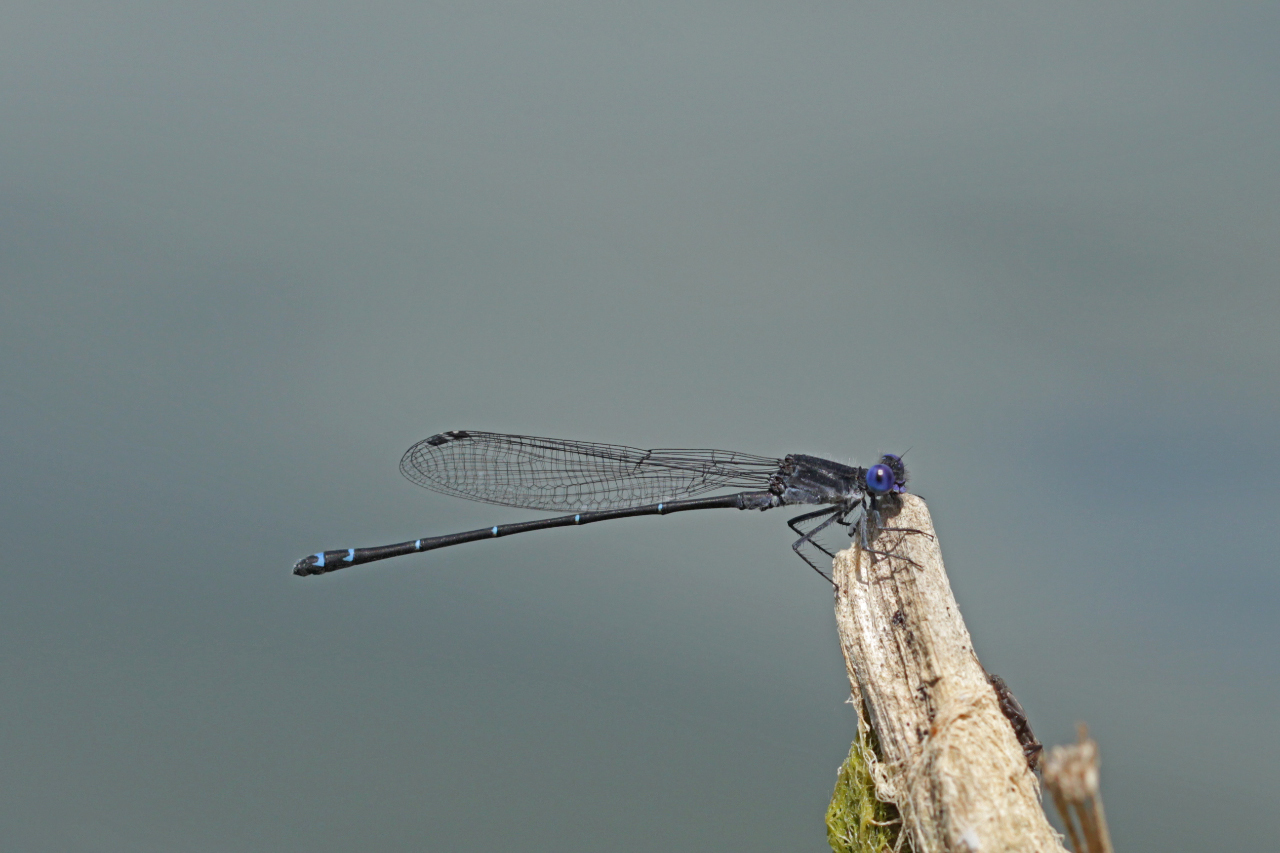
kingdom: Animalia
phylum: Arthropoda
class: Insecta
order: Odonata
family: Coenagrionidae
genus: Argia
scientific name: Argia translata
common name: Dusky dancer
